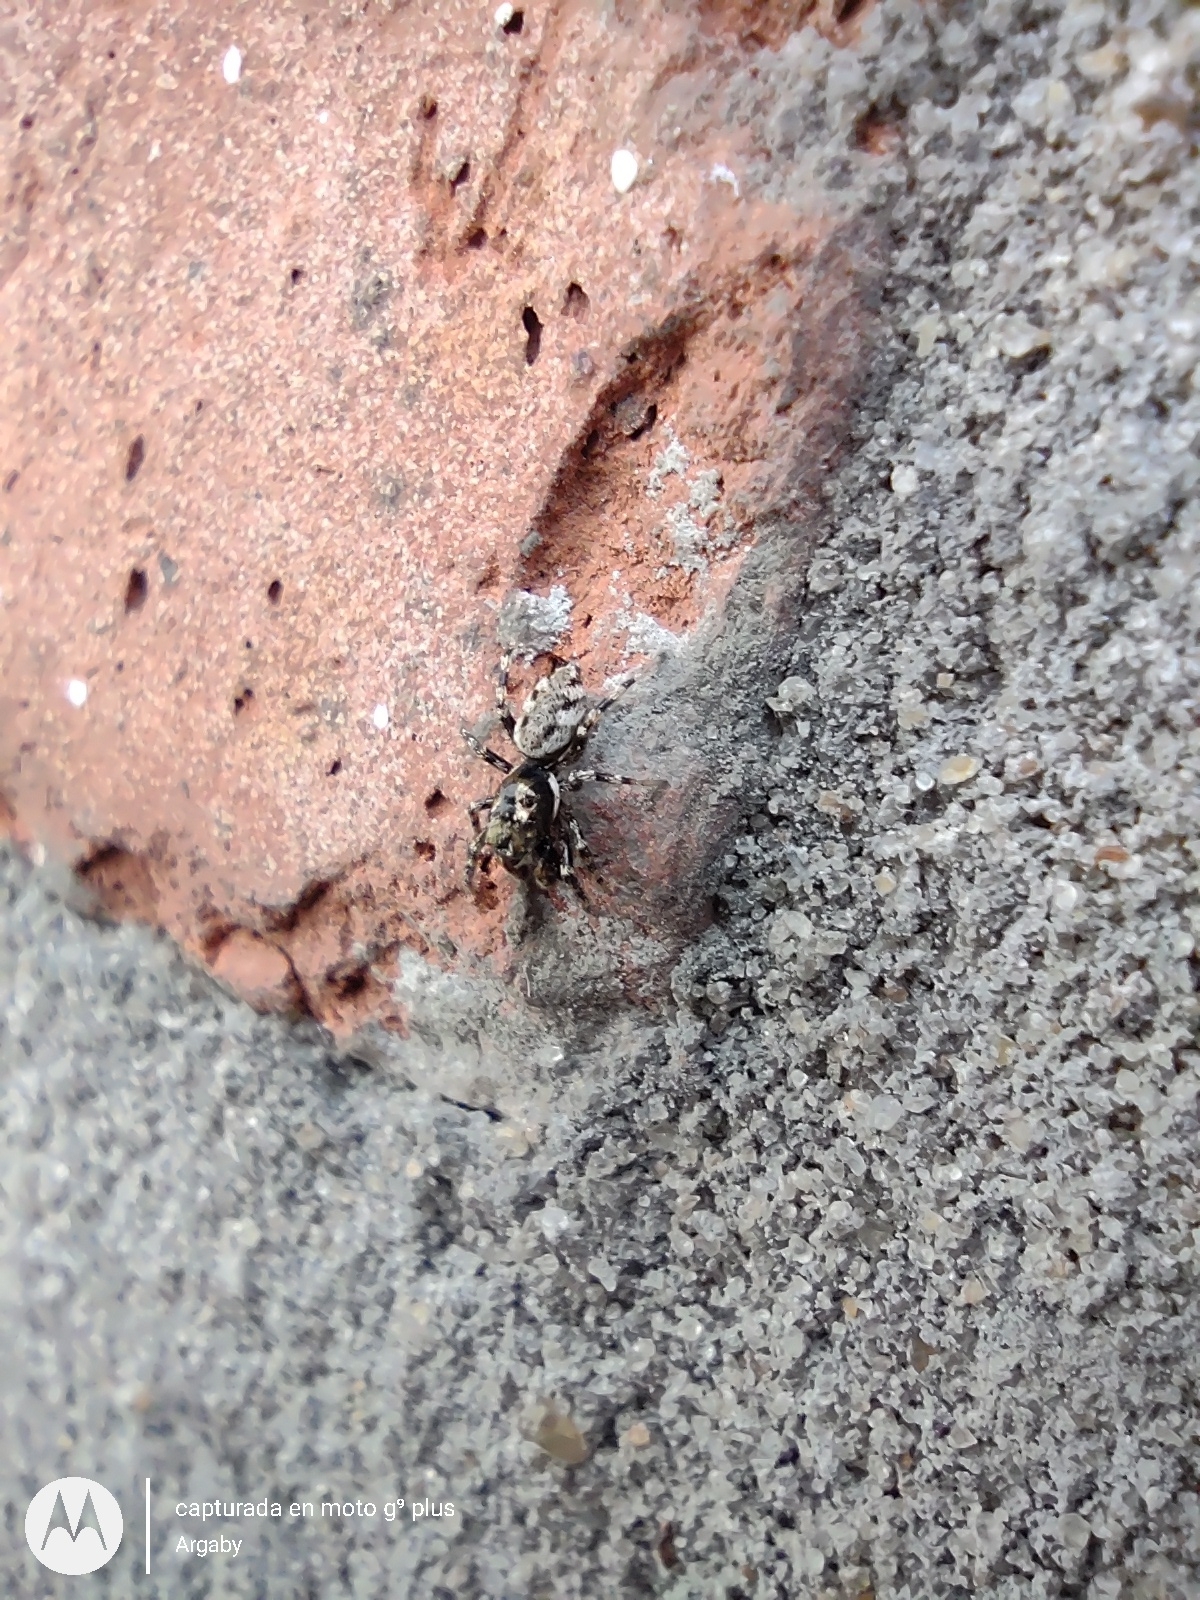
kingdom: Animalia
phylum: Arthropoda
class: Arachnida
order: Araneae
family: Salticidae
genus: Salticus
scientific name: Salticus mutabilis
